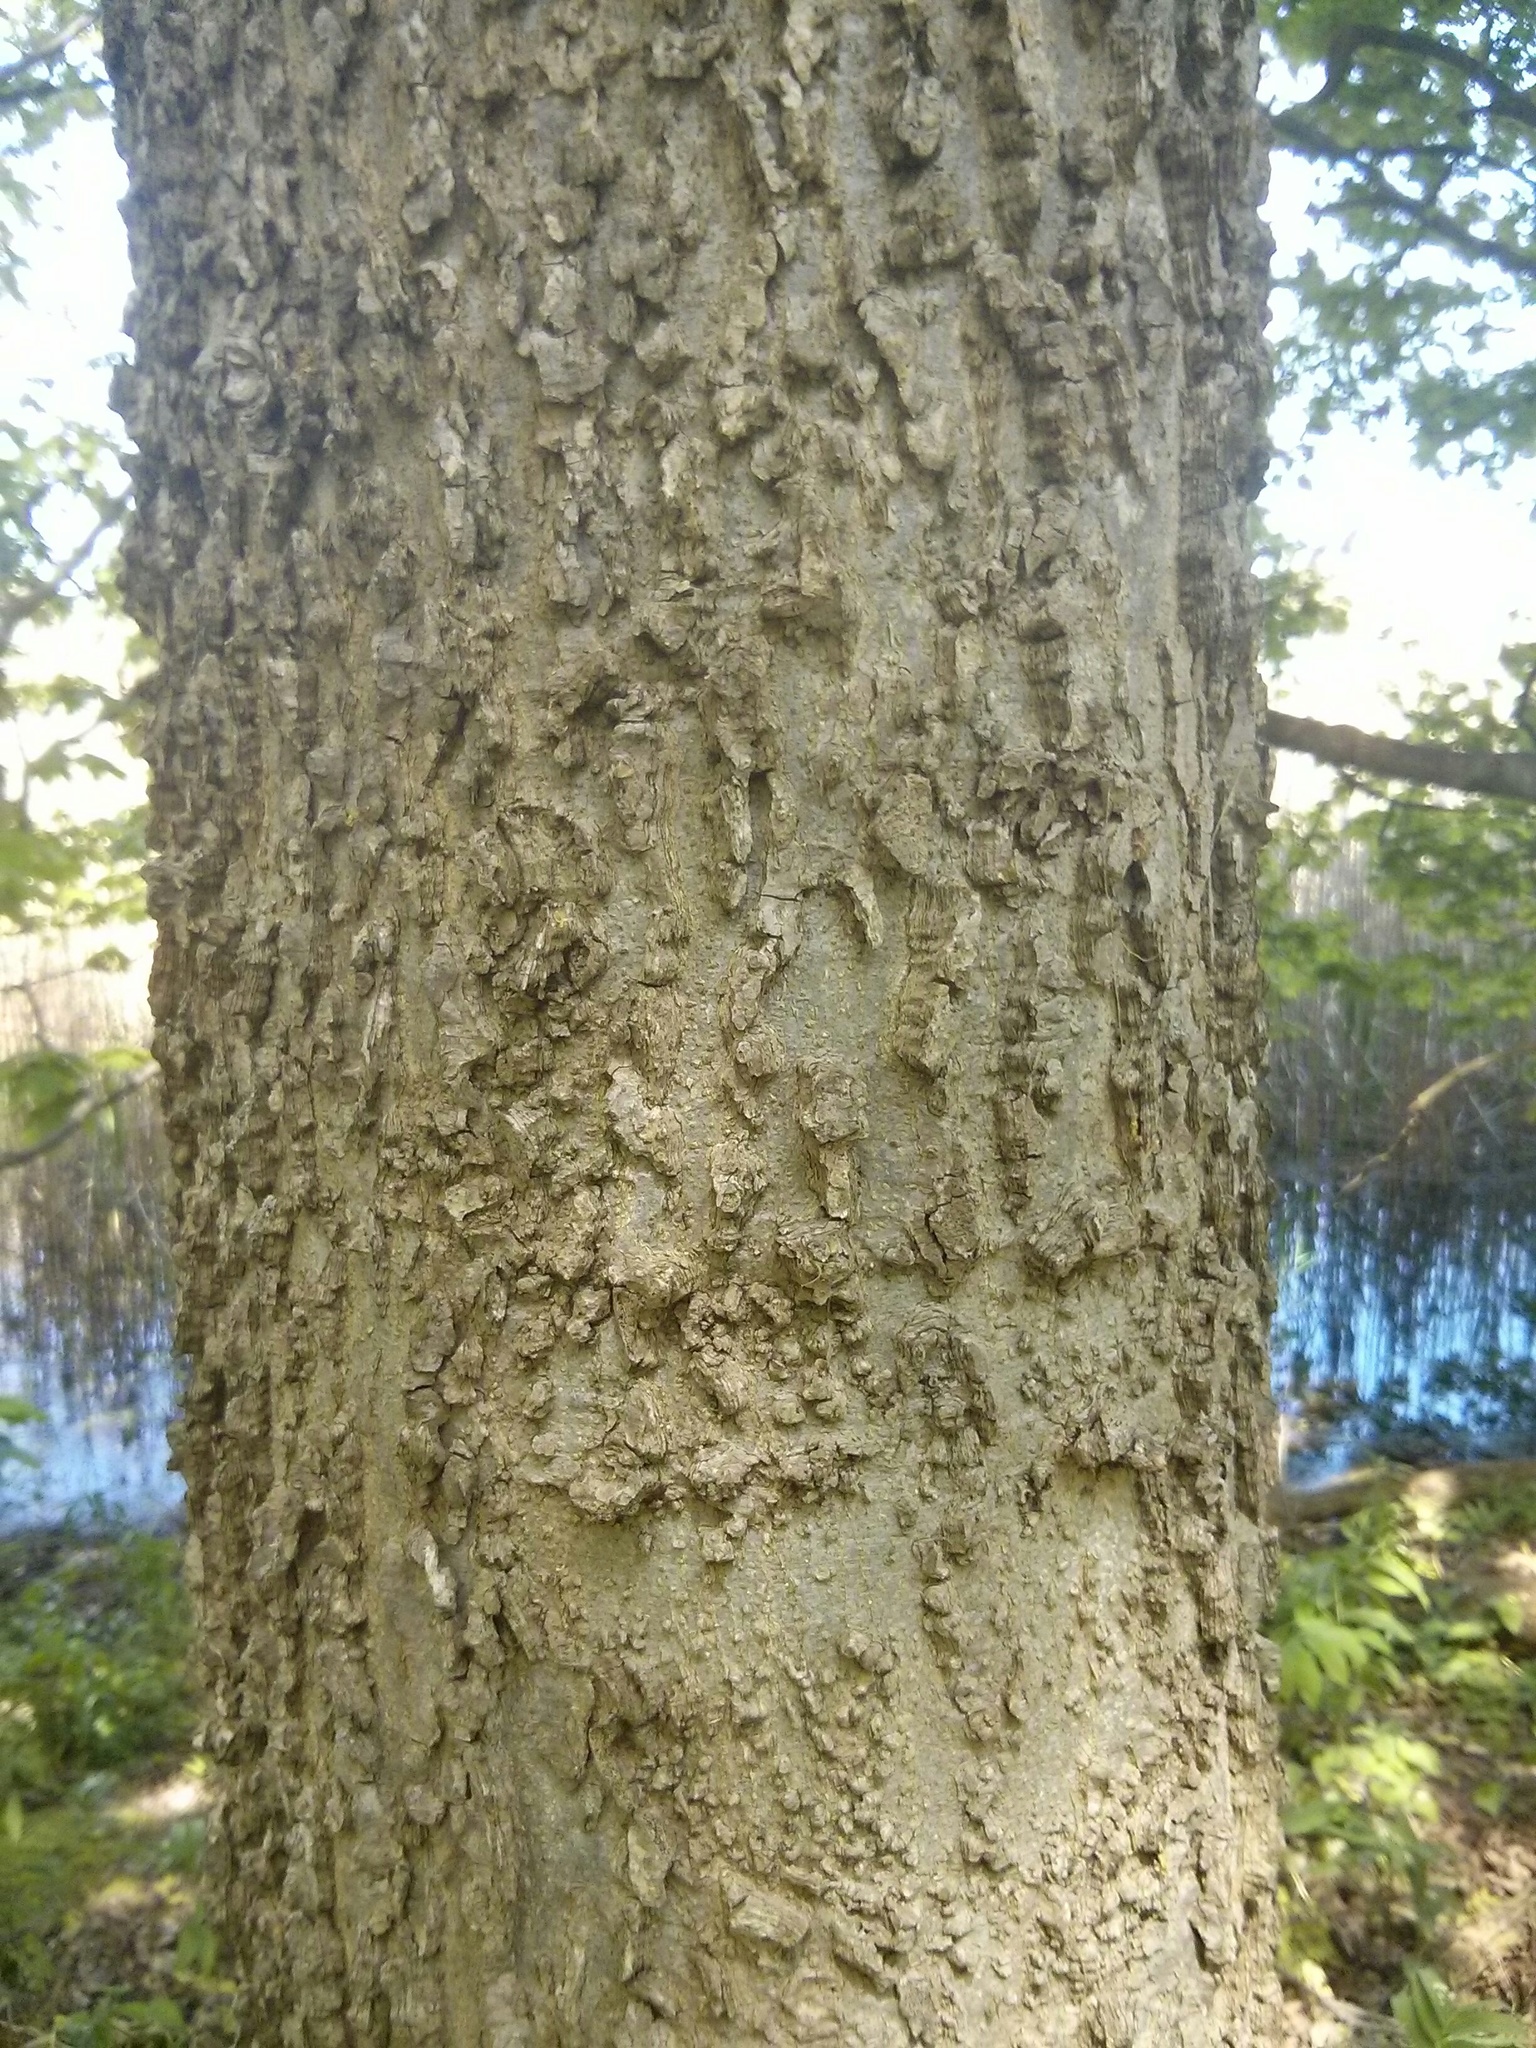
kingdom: Plantae
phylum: Tracheophyta
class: Magnoliopsida
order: Rosales
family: Cannabaceae
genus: Celtis
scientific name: Celtis occidentalis
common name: Common hackberry
